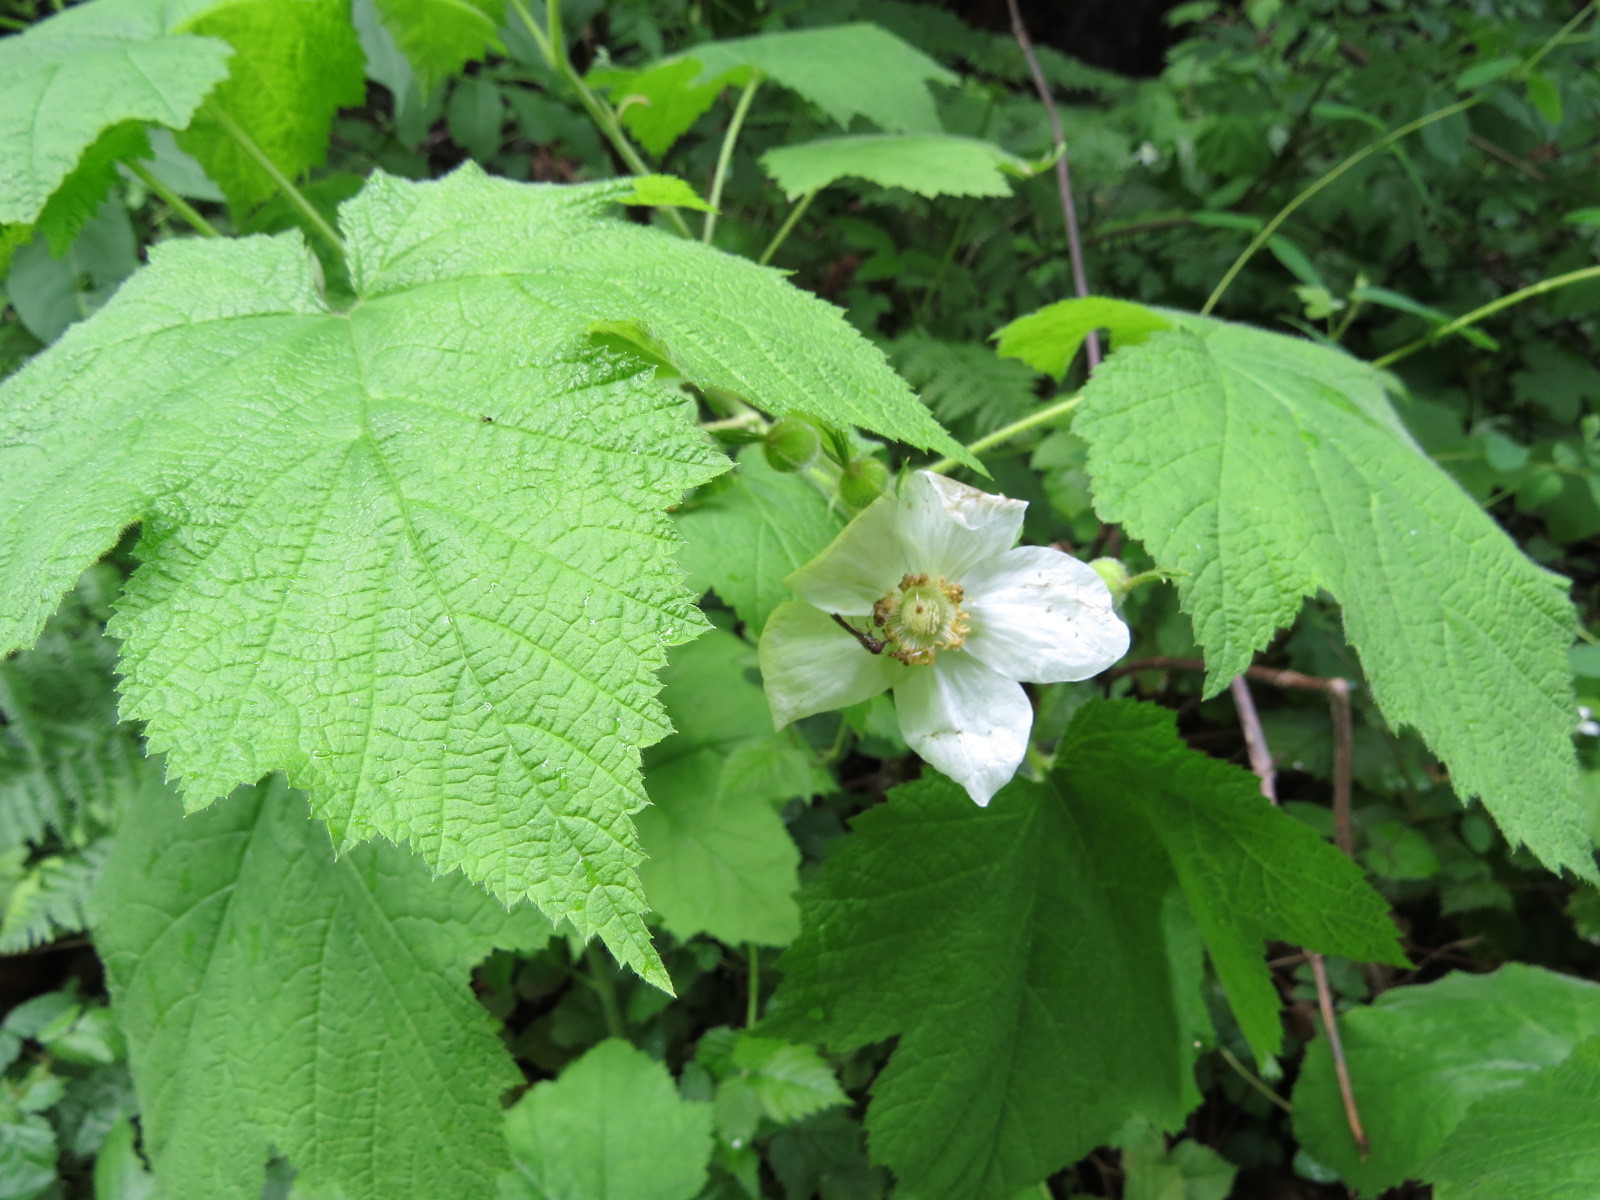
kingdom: Plantae
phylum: Tracheophyta
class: Magnoliopsida
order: Rosales
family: Rosaceae
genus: Rubus
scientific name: Rubus parviflorus
